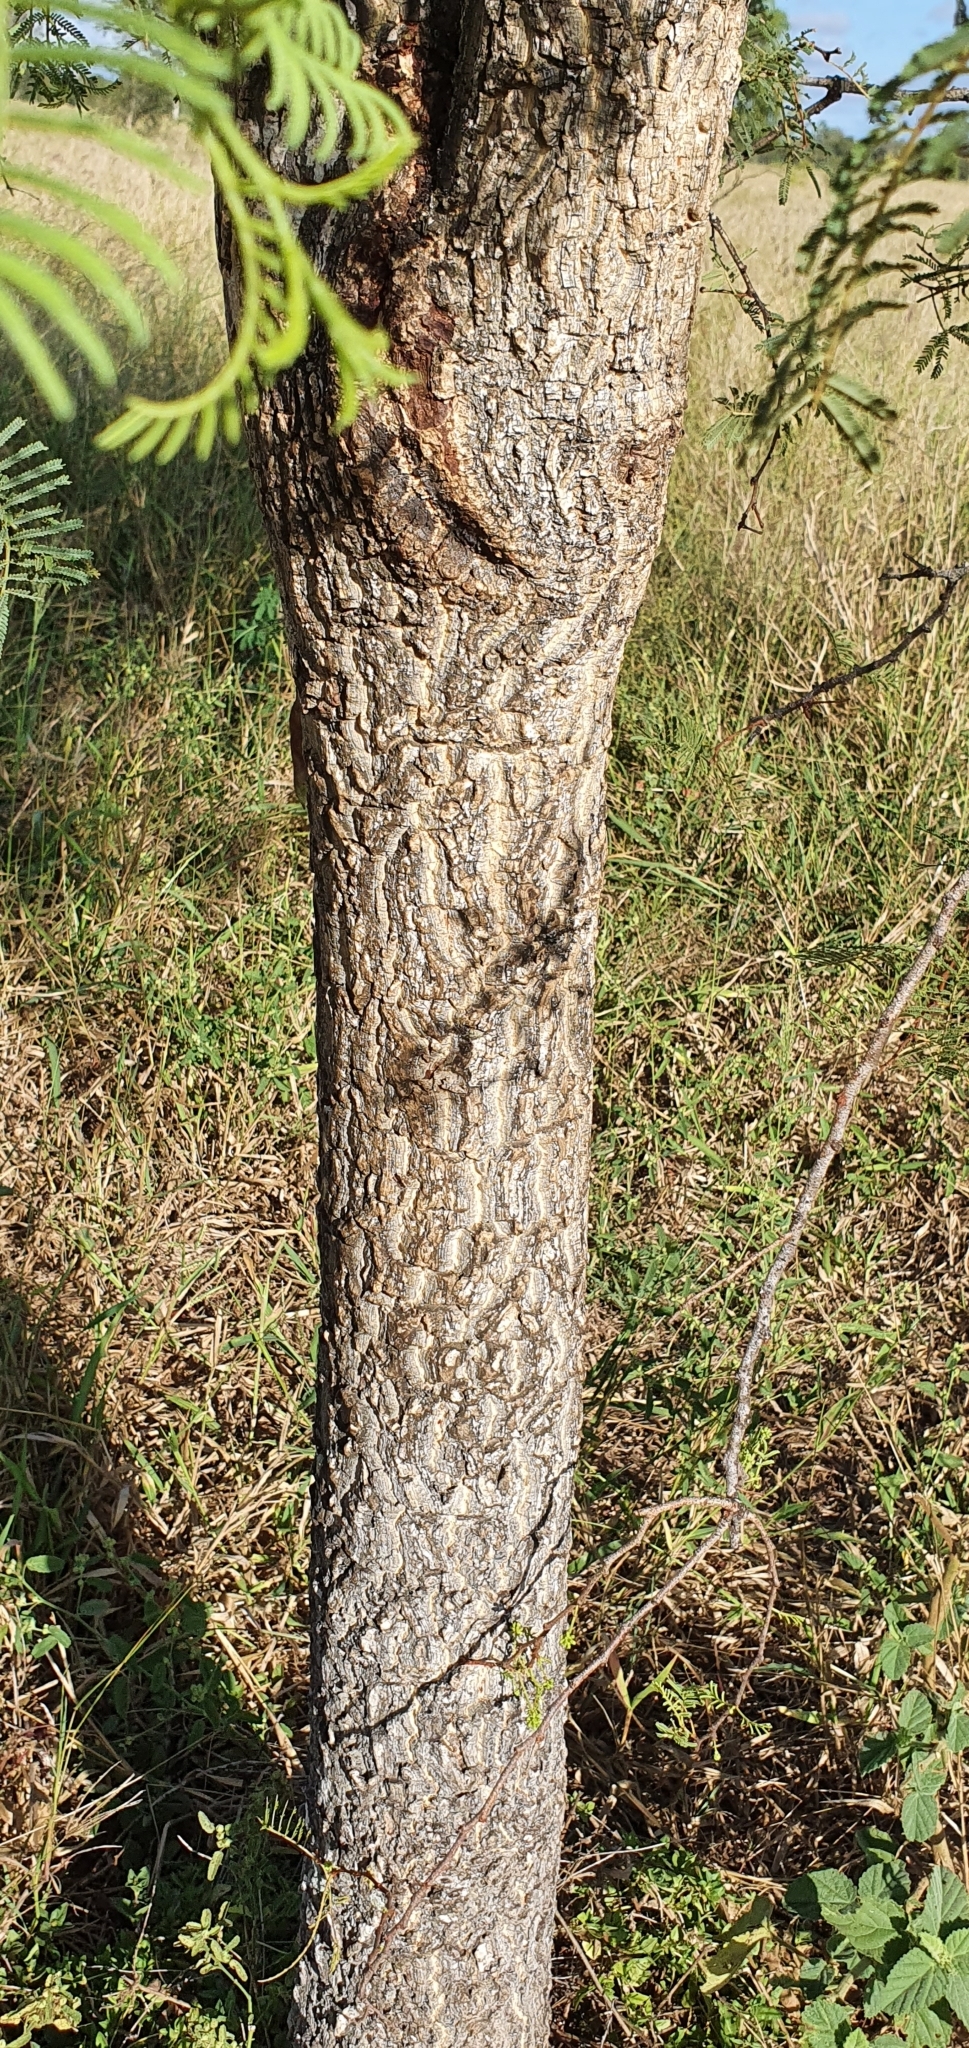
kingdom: Plantae
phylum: Tracheophyta
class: Magnoliopsida
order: Fabales
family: Fabaceae
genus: Vachellia
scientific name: Vachellia bidwillii
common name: Corkwood wattle
